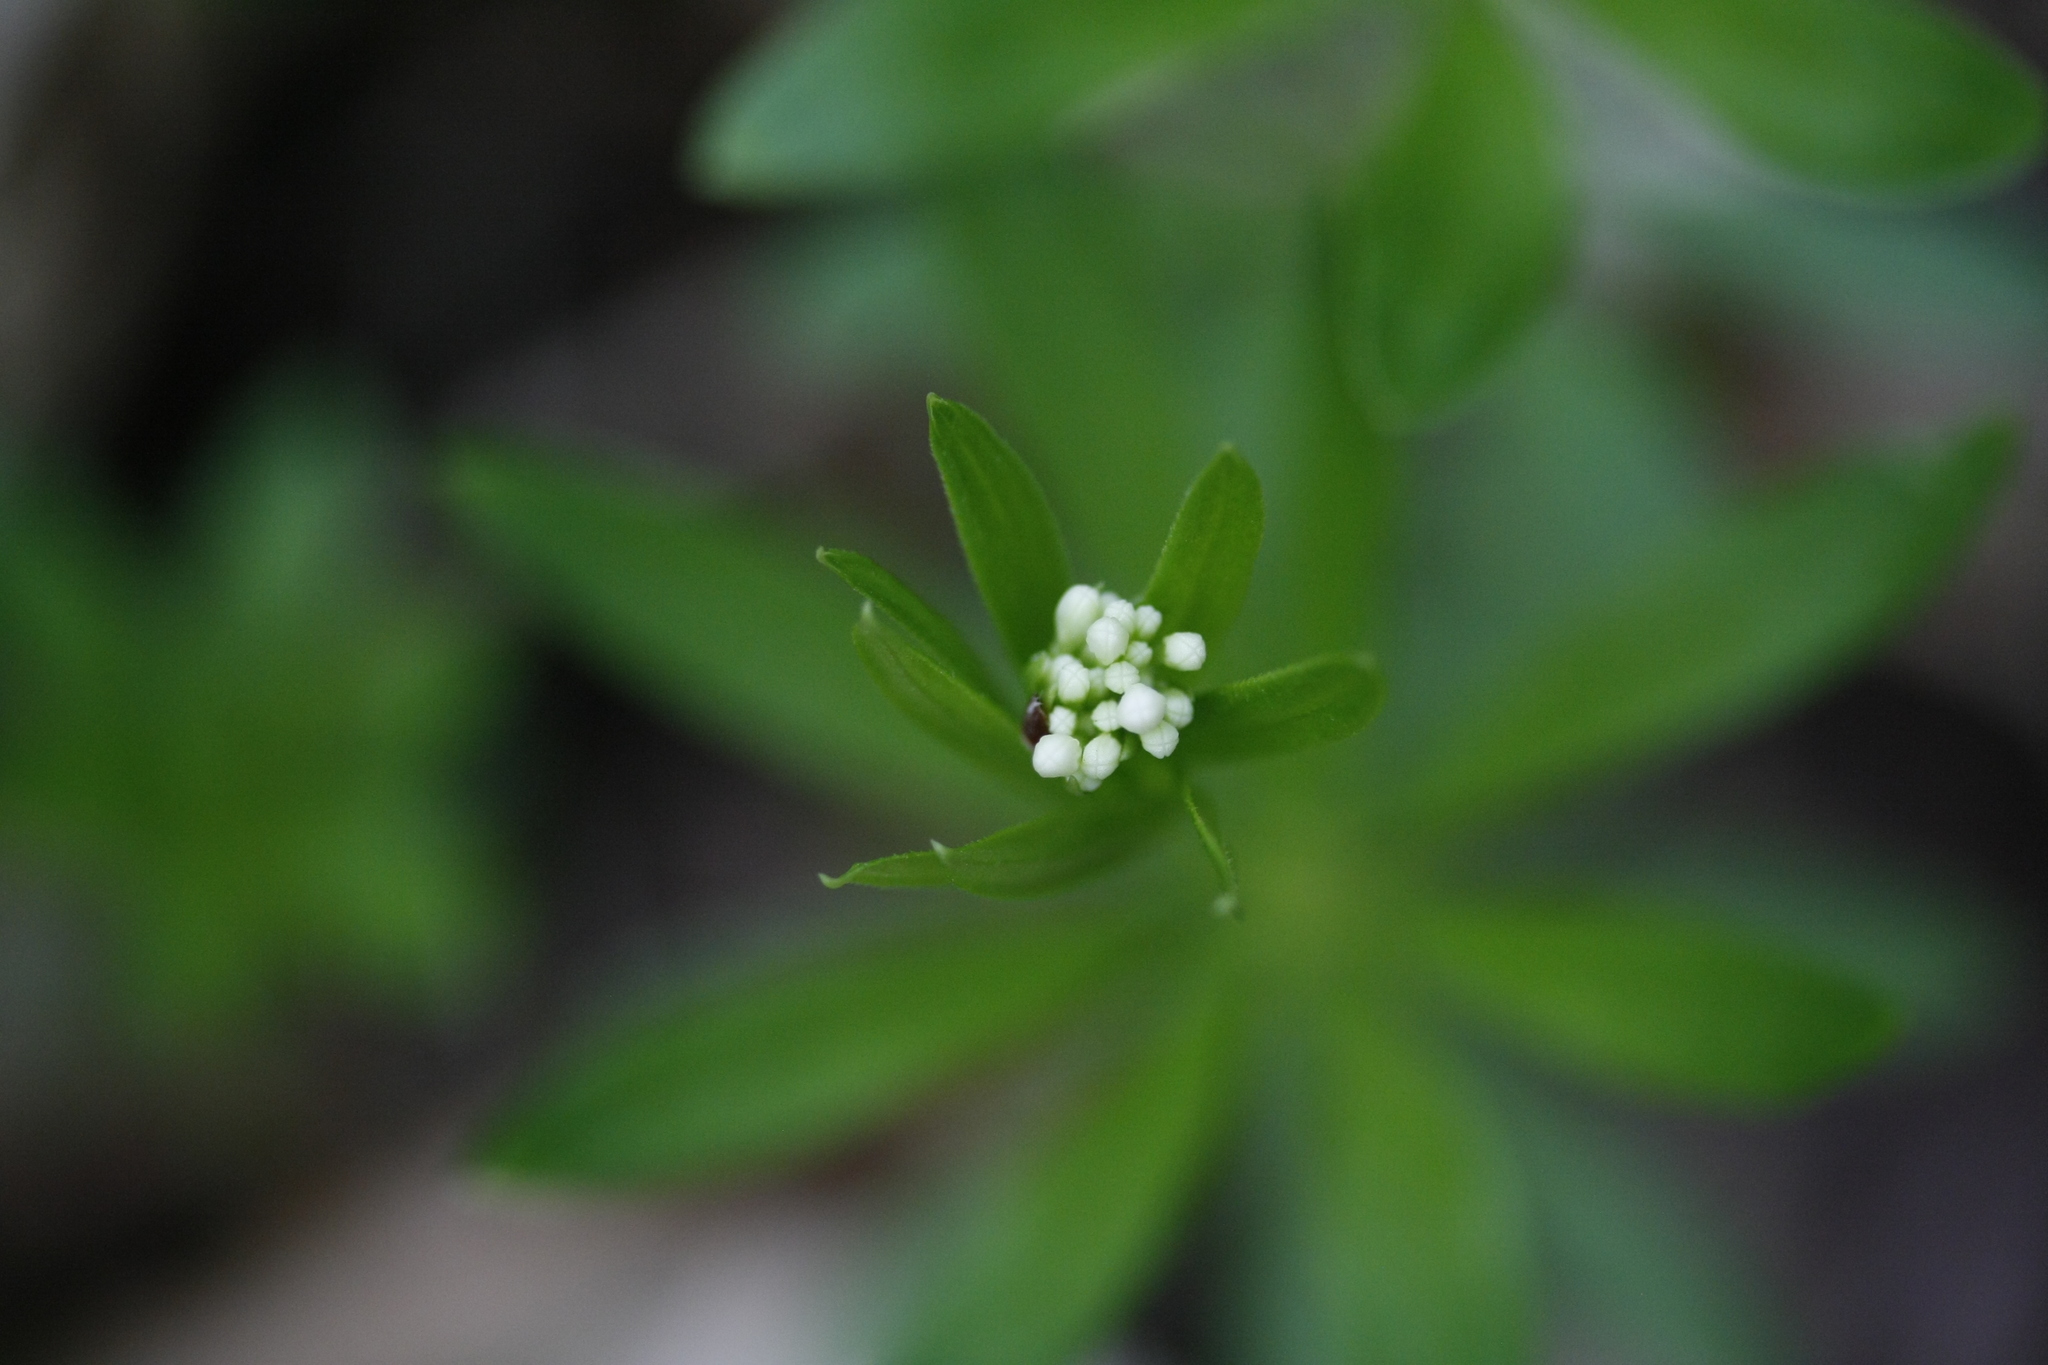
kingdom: Plantae
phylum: Tracheophyta
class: Magnoliopsida
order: Gentianales
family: Rubiaceae
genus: Galium
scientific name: Galium odoratum
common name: Sweet woodruff
